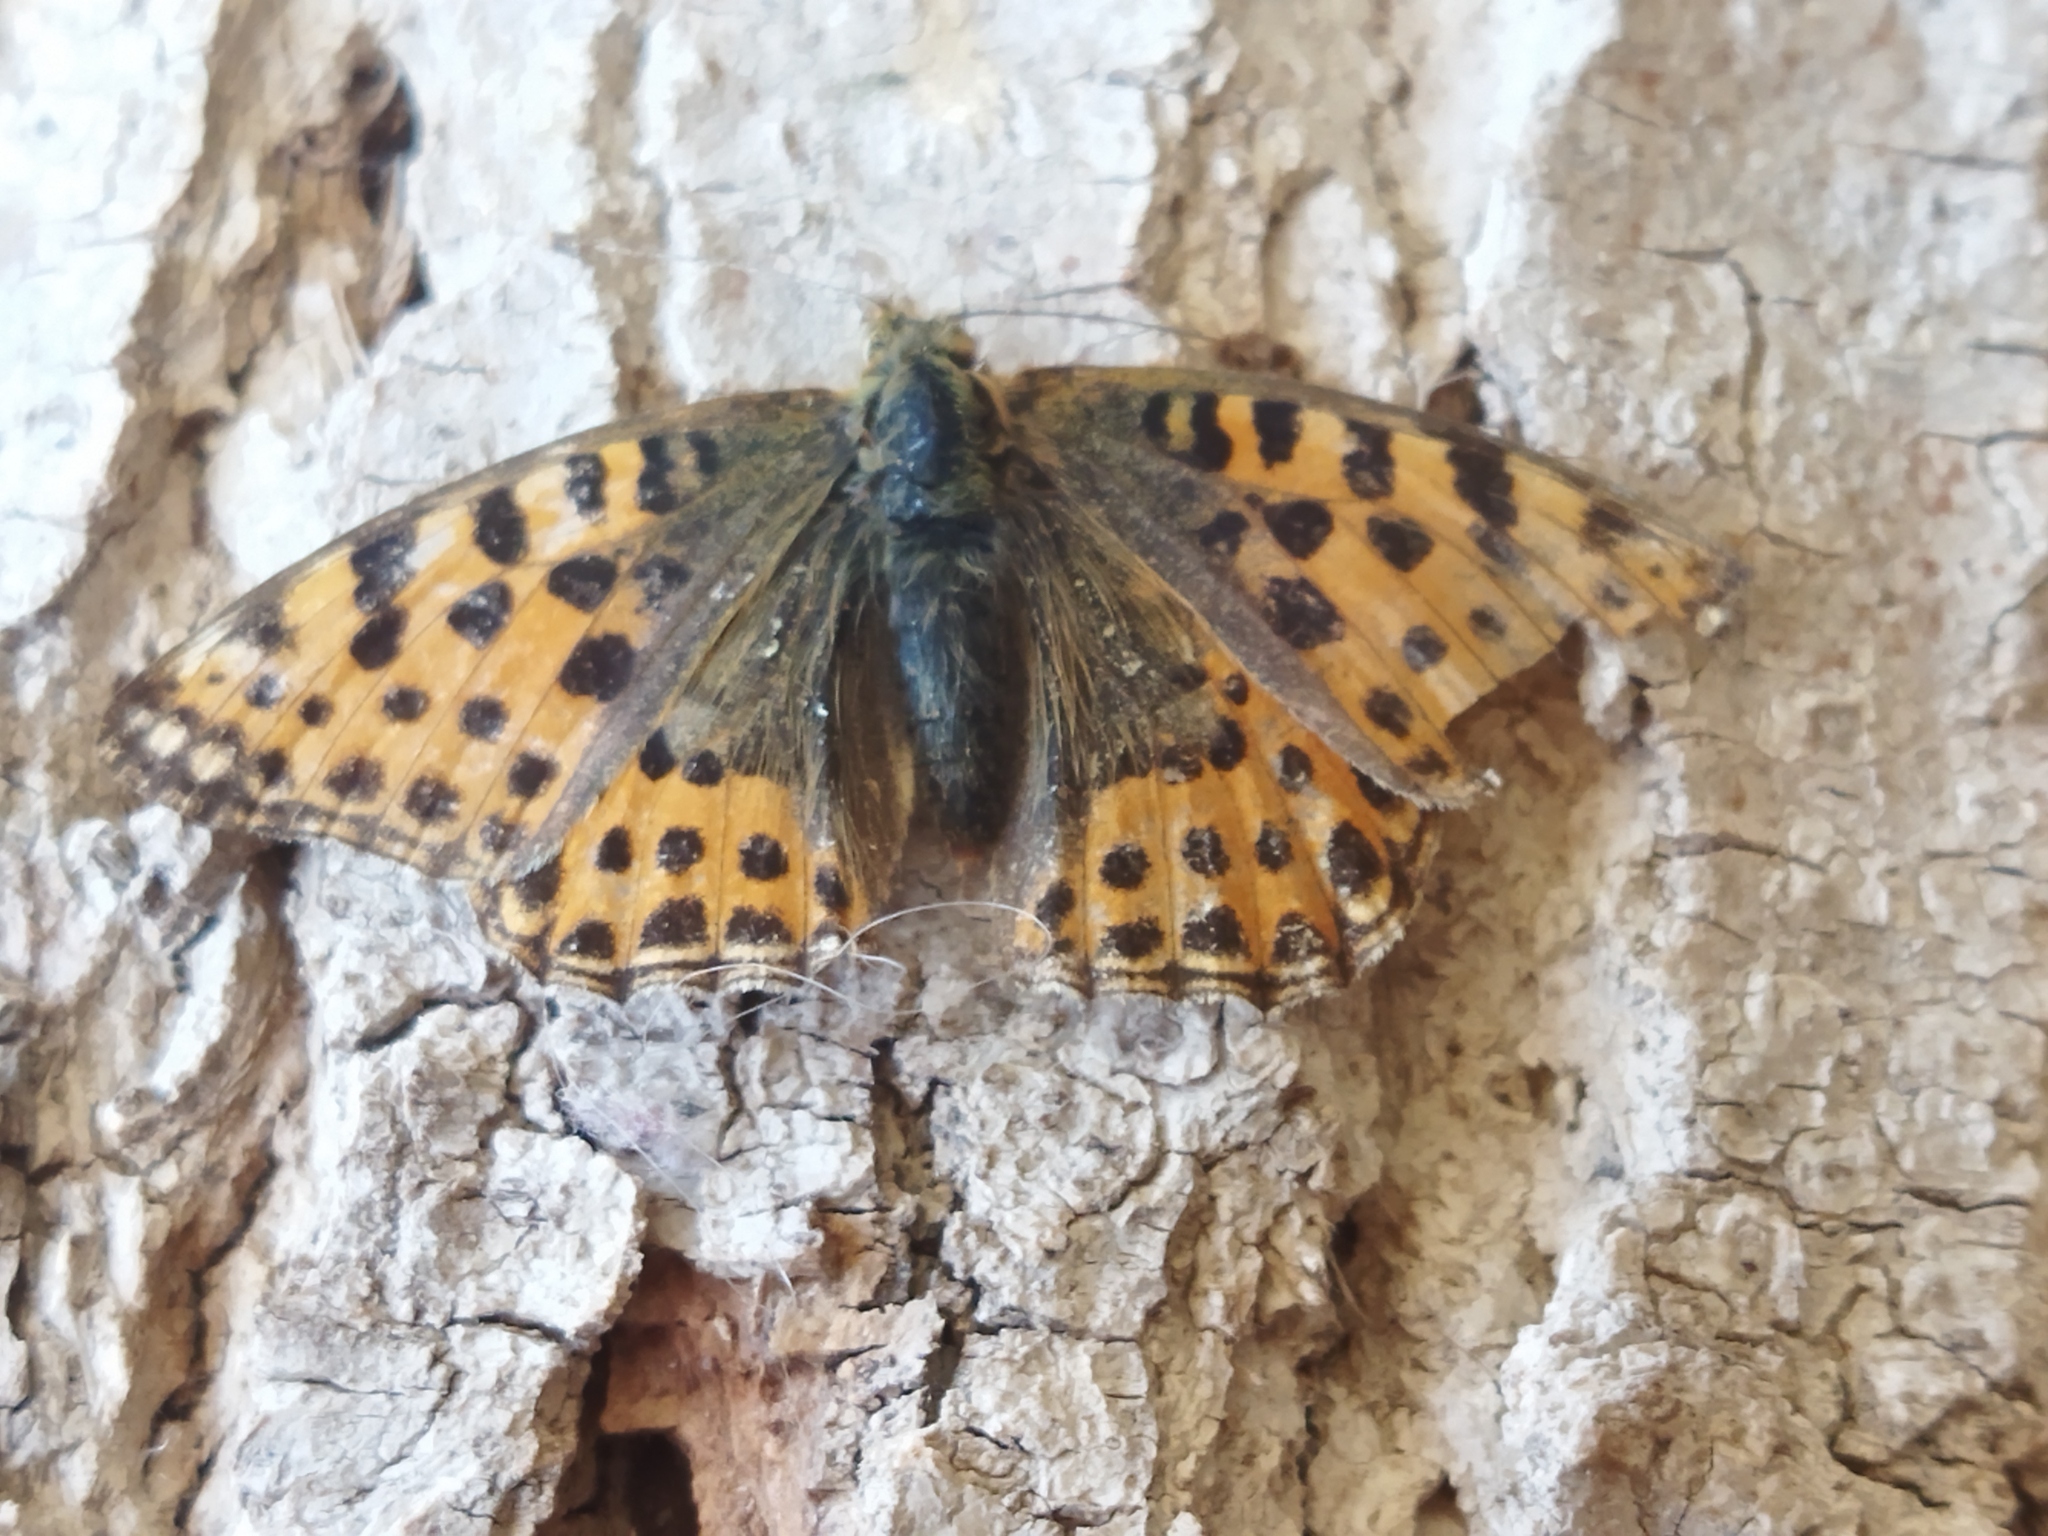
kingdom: Animalia
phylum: Arthropoda
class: Insecta
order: Lepidoptera
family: Nymphalidae
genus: Issoria
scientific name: Issoria lathonia
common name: Queen of spain fritillary
